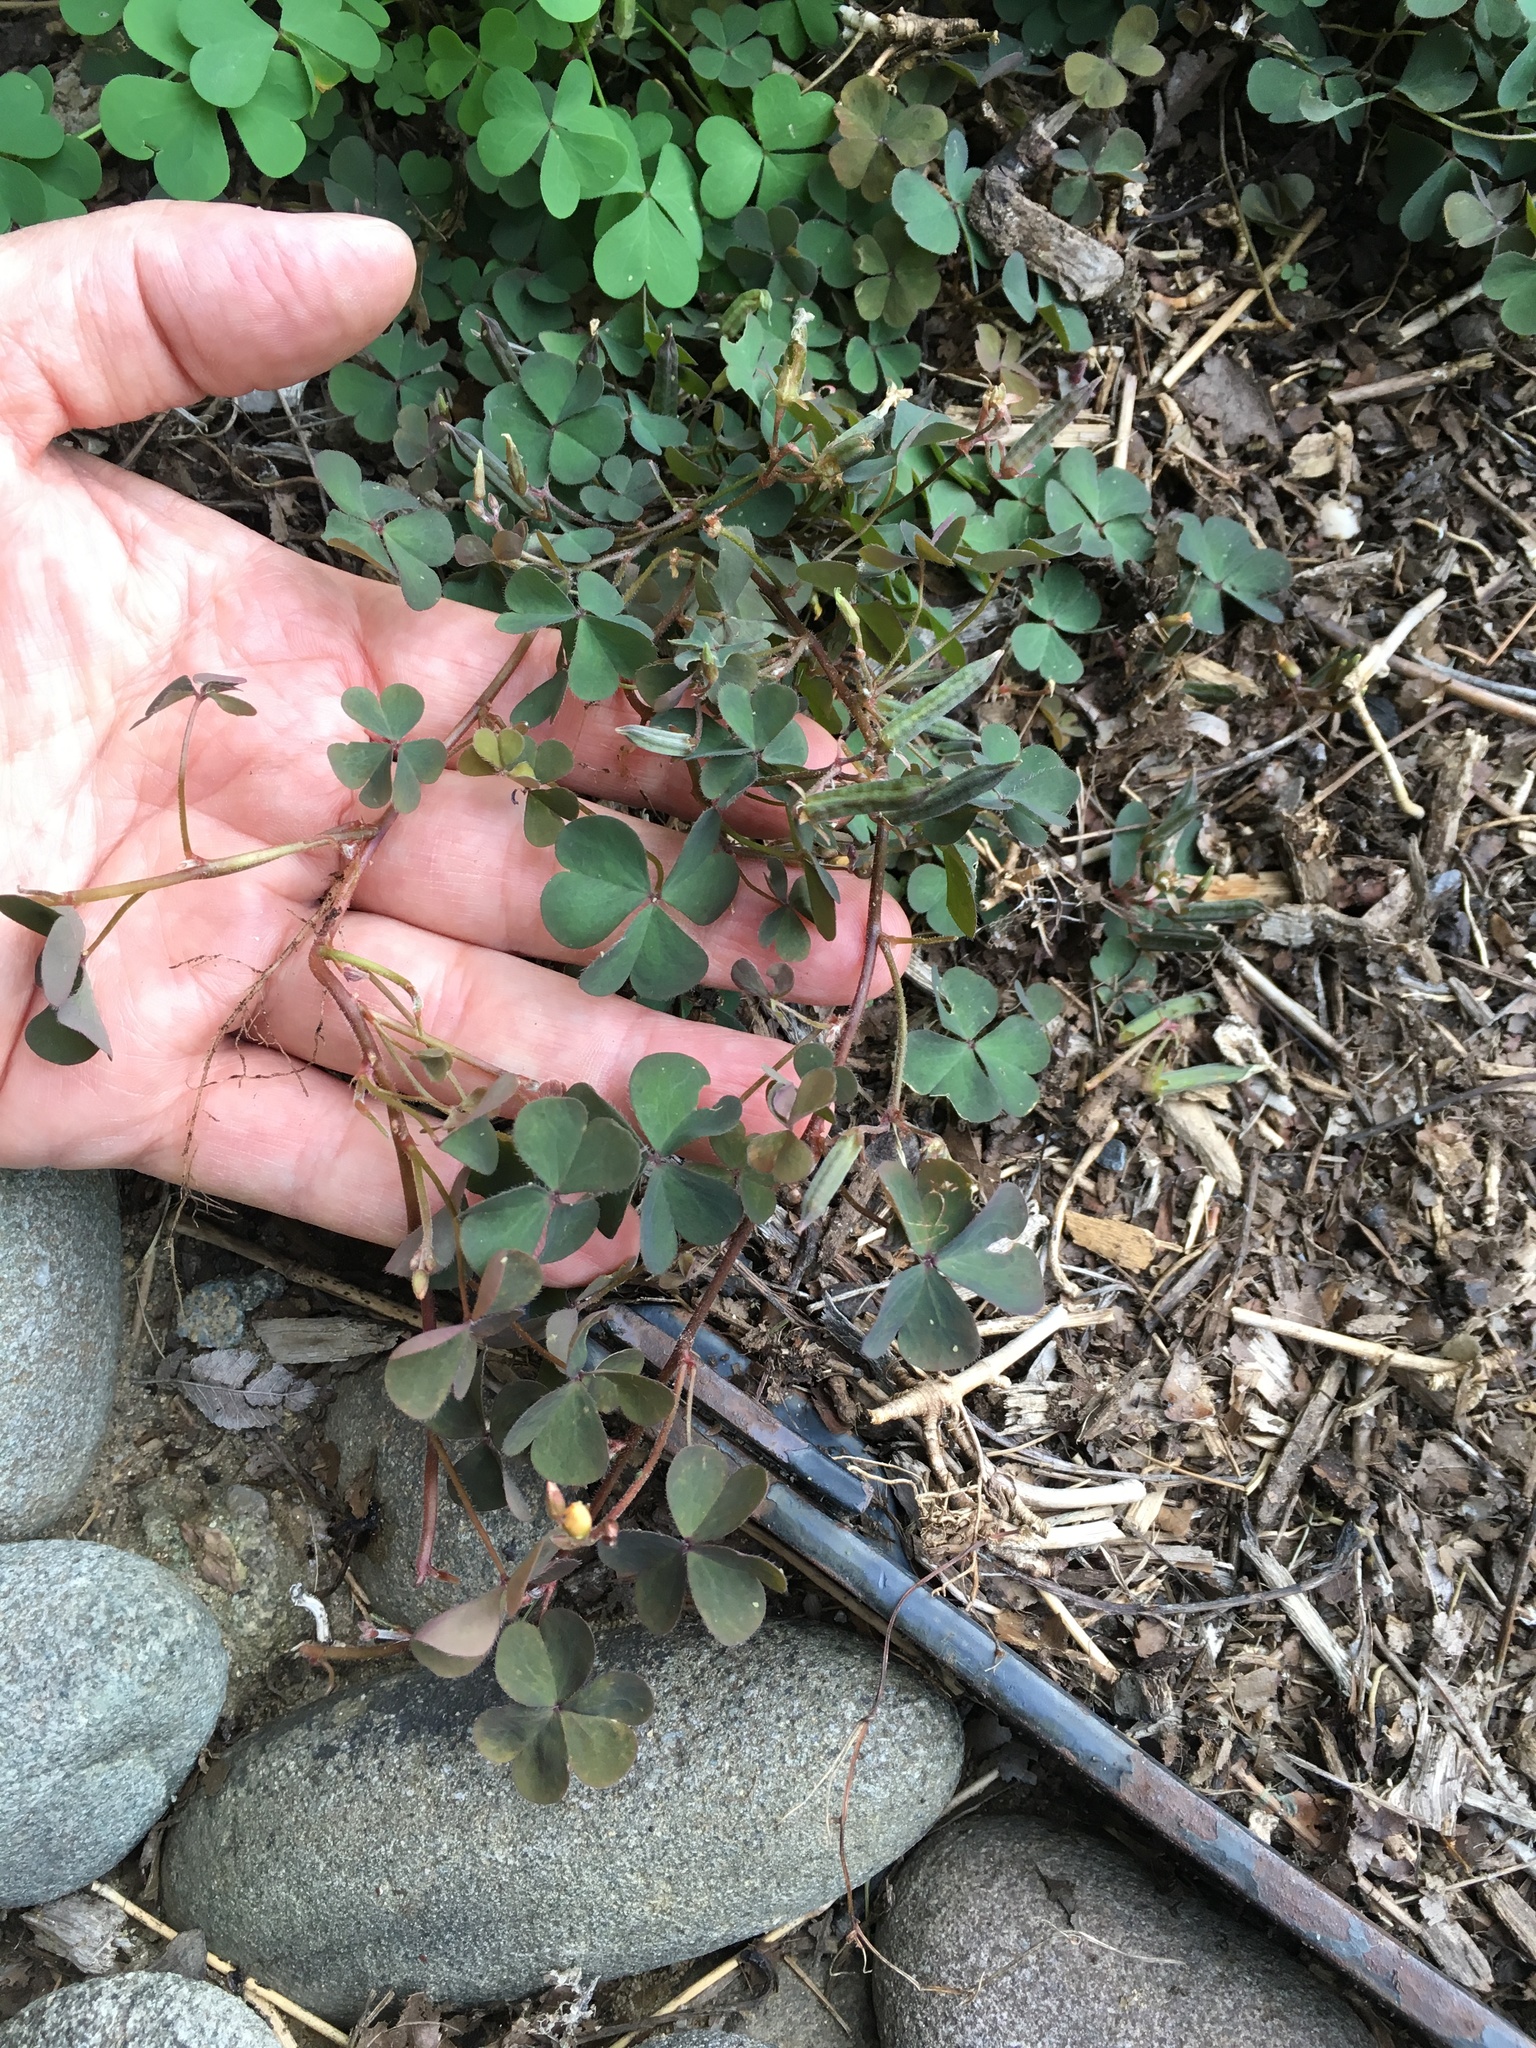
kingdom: Plantae
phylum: Tracheophyta
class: Magnoliopsida
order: Oxalidales
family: Oxalidaceae
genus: Oxalis
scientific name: Oxalis corniculata
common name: Procumbent yellow-sorrel
